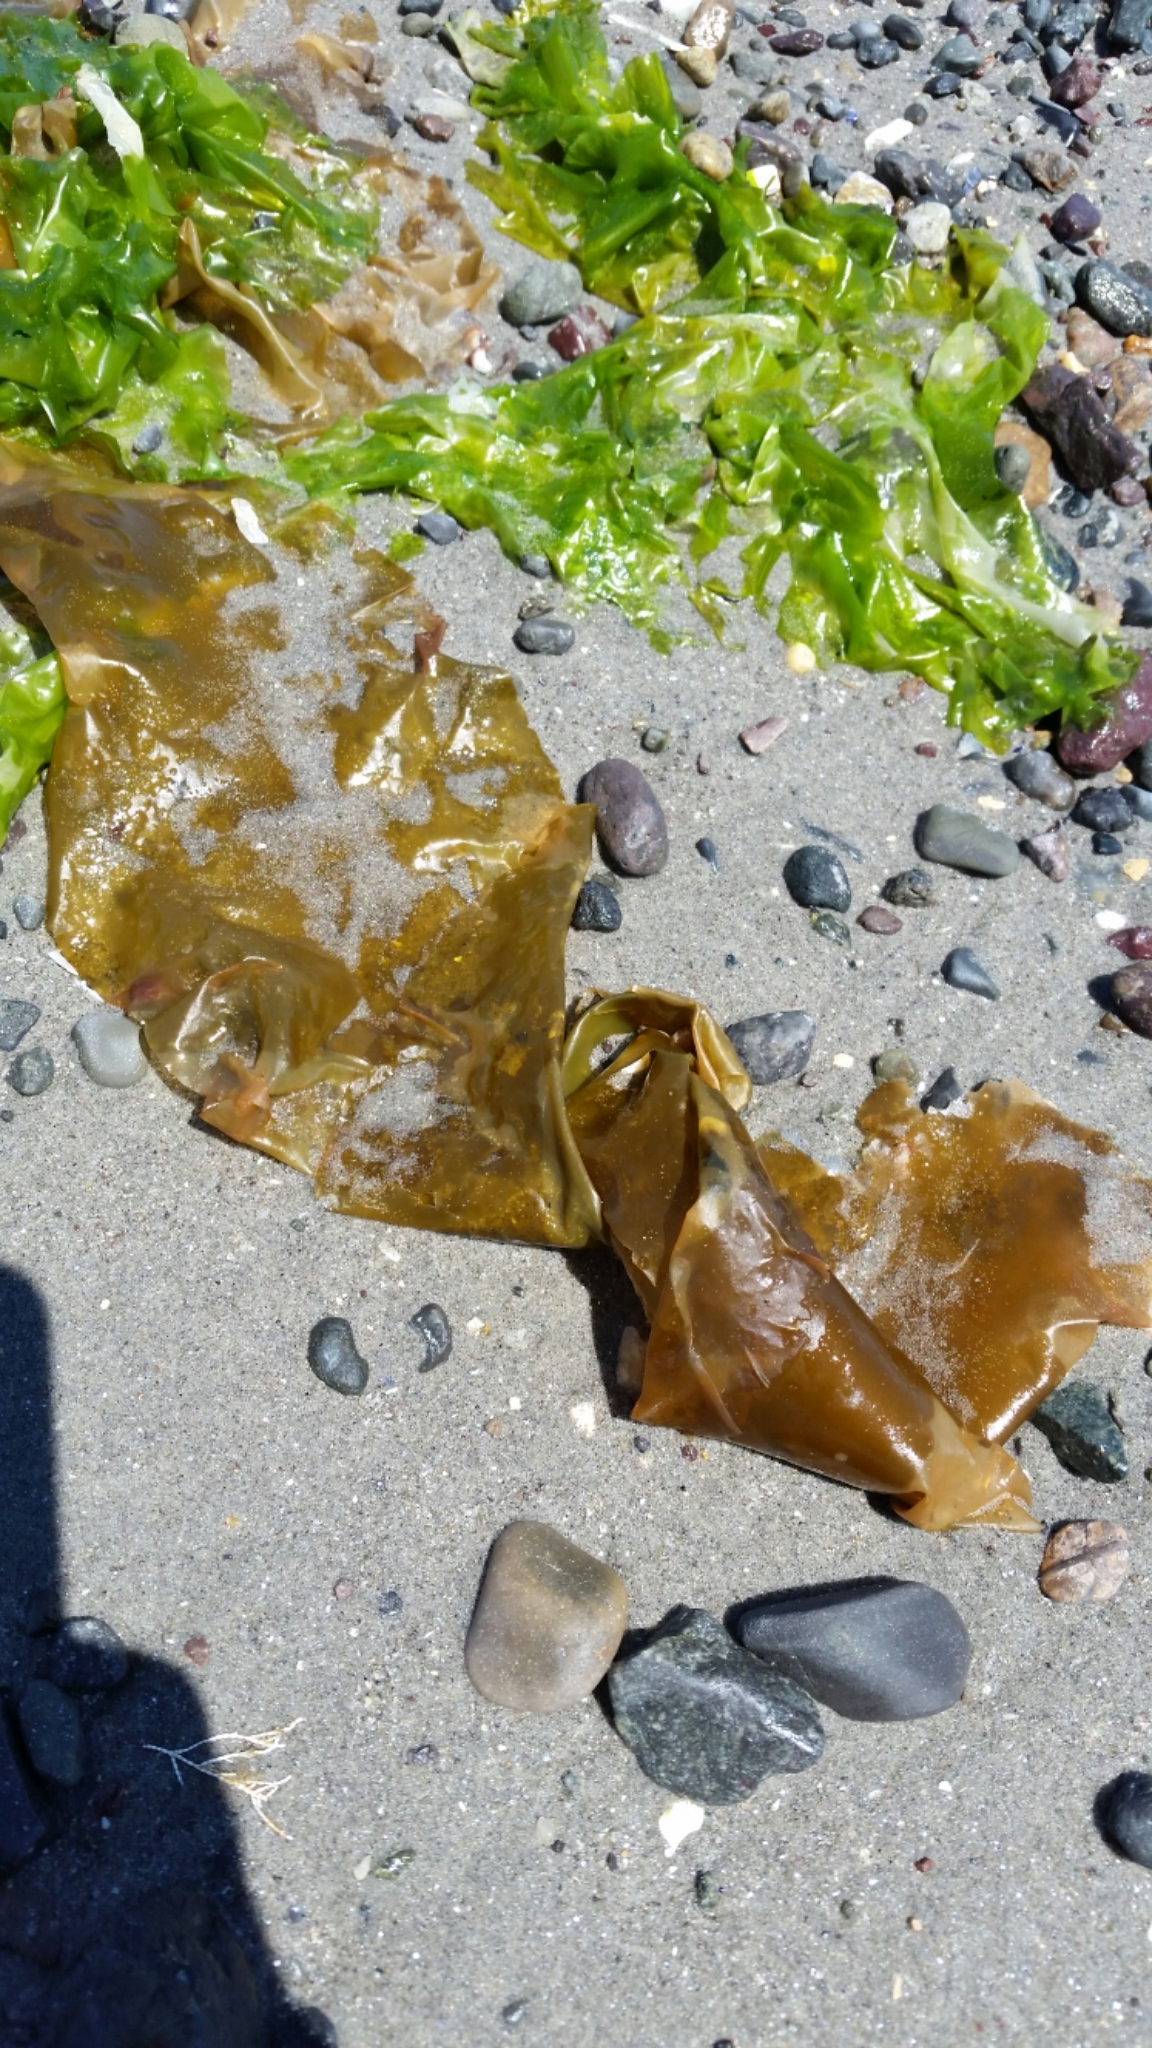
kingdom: Plantae
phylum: Chlorophyta
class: Ulvophyceae
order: Ulvales
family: Ulvaceae
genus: Ulva
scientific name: Ulva lactuca
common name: Sea lettuce
